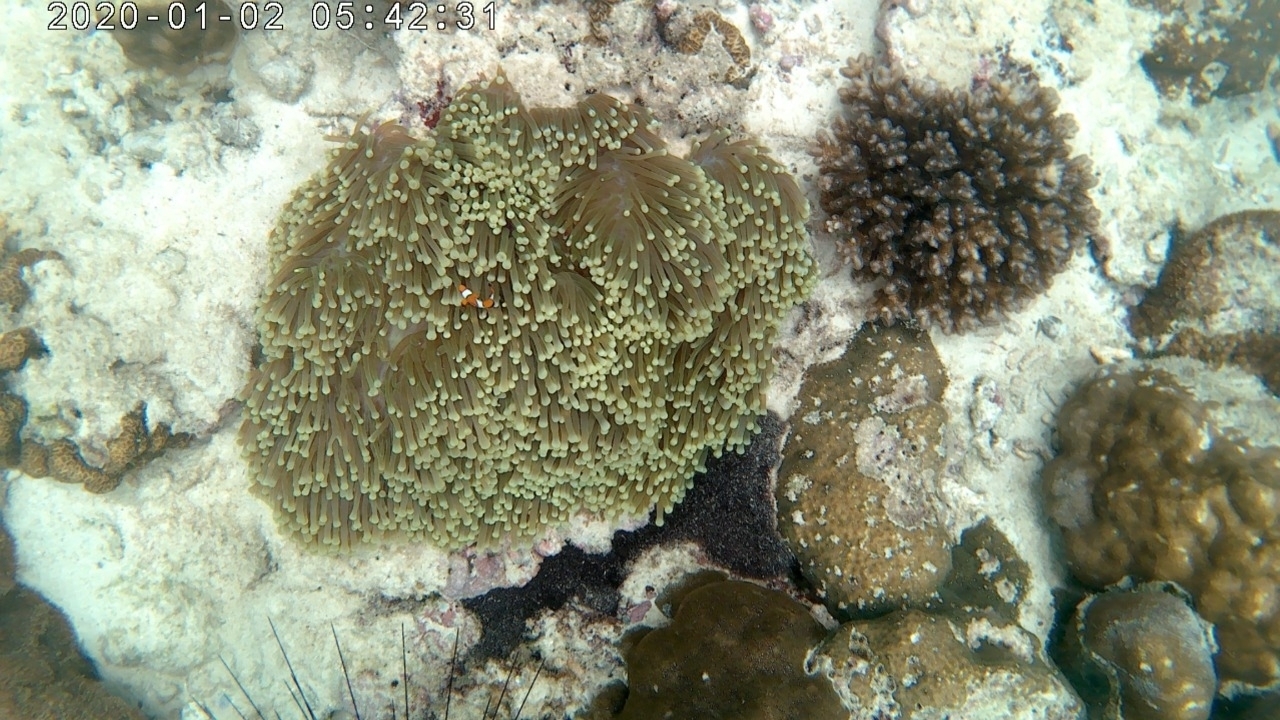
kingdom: Animalia
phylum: Chordata
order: Perciformes
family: Pomacentridae
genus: Amphiprion
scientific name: Amphiprion ocellaris
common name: Clown anemonefish
